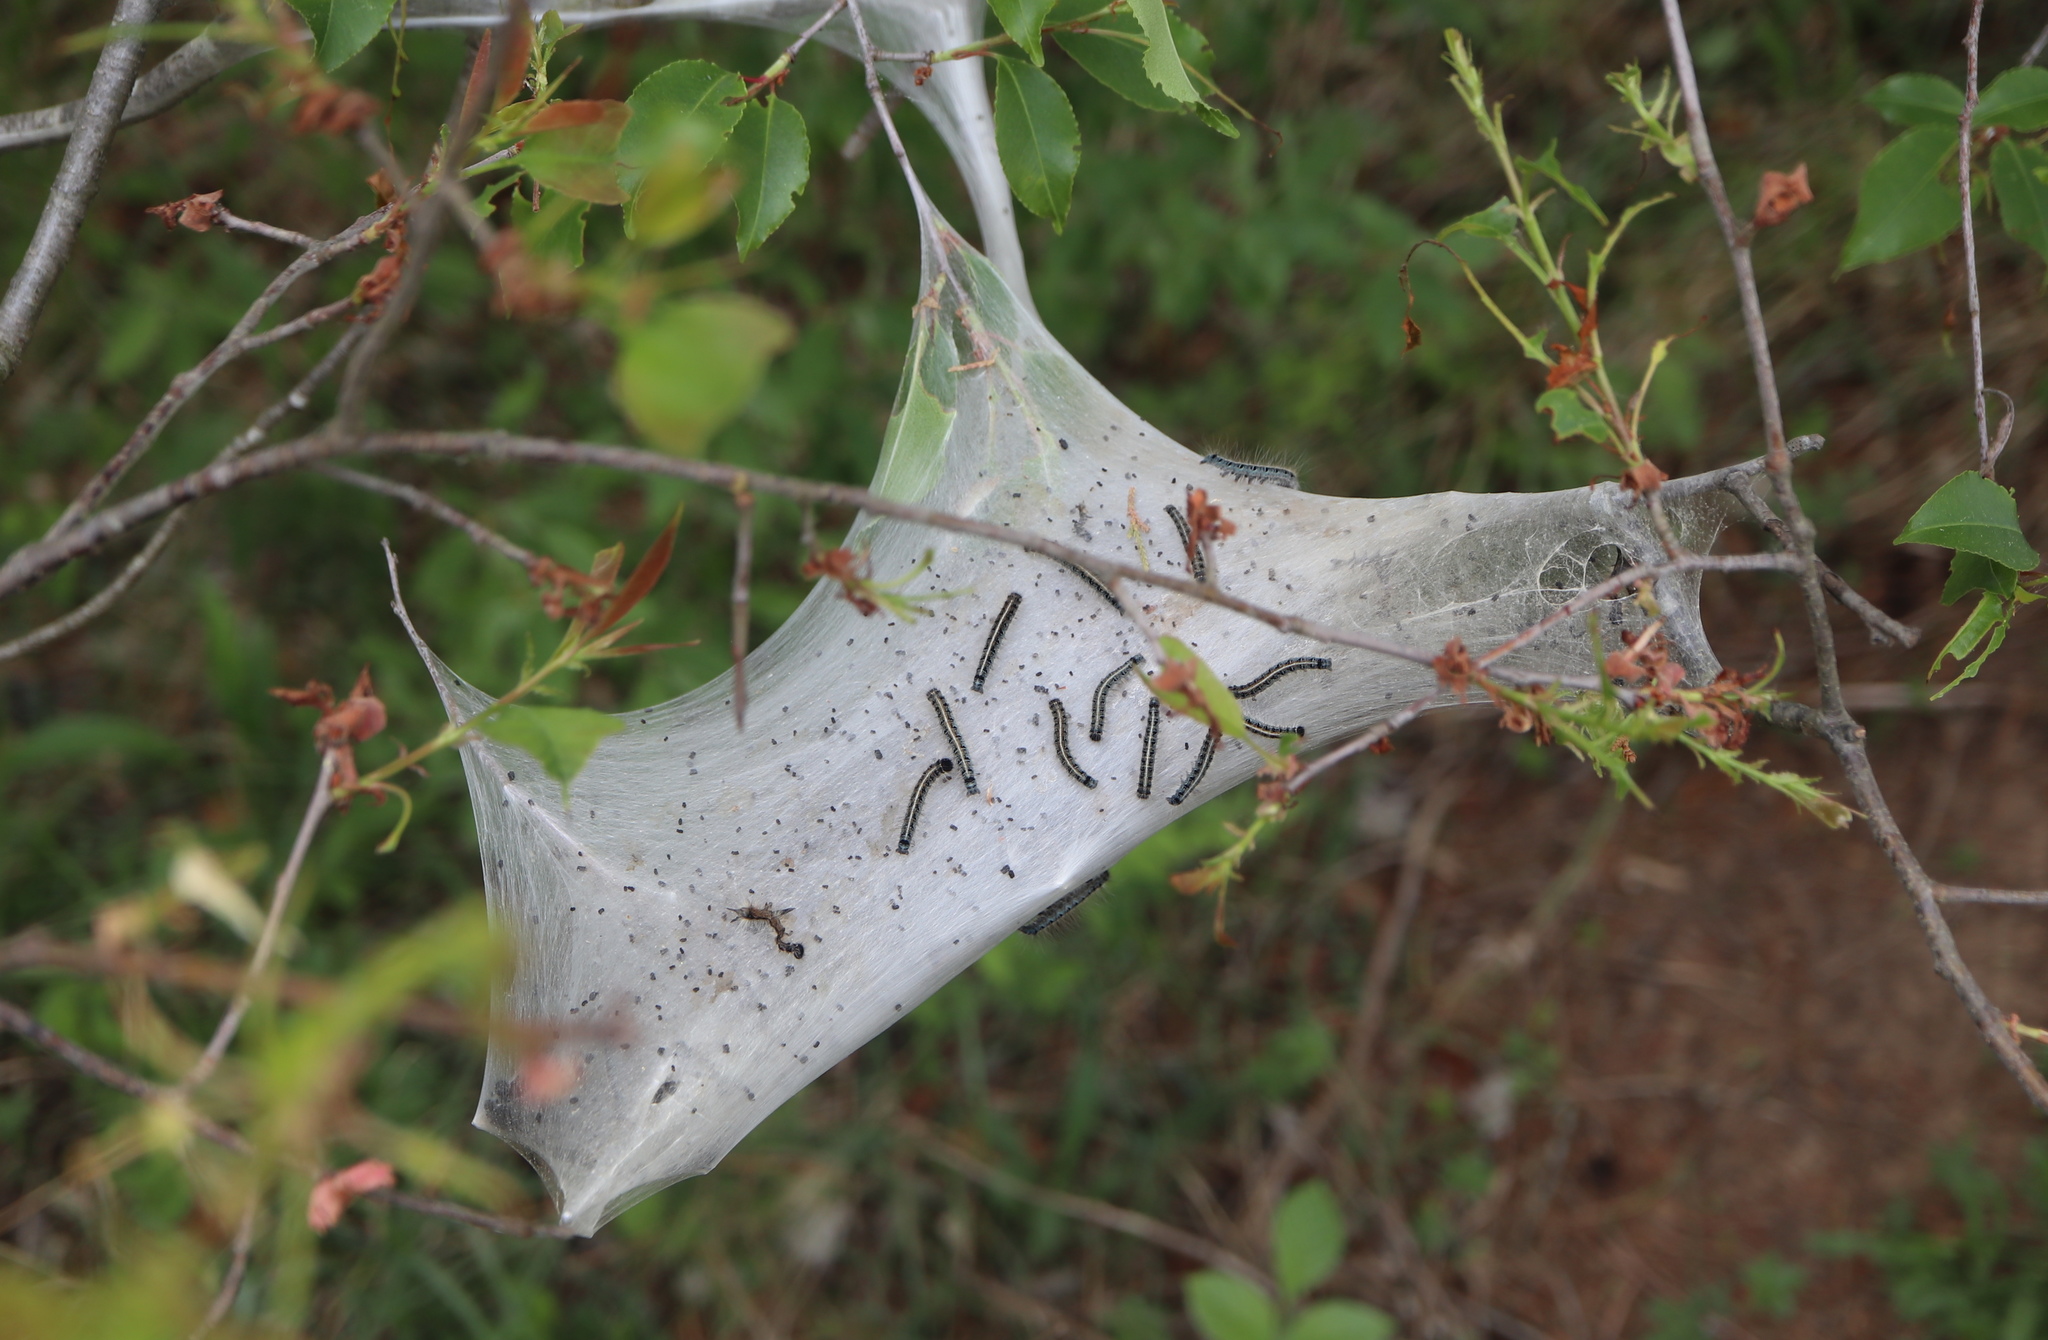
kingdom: Animalia
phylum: Arthropoda
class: Insecta
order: Lepidoptera
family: Lasiocampidae
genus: Malacosoma
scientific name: Malacosoma americana
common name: Eastern tent caterpillar moth
